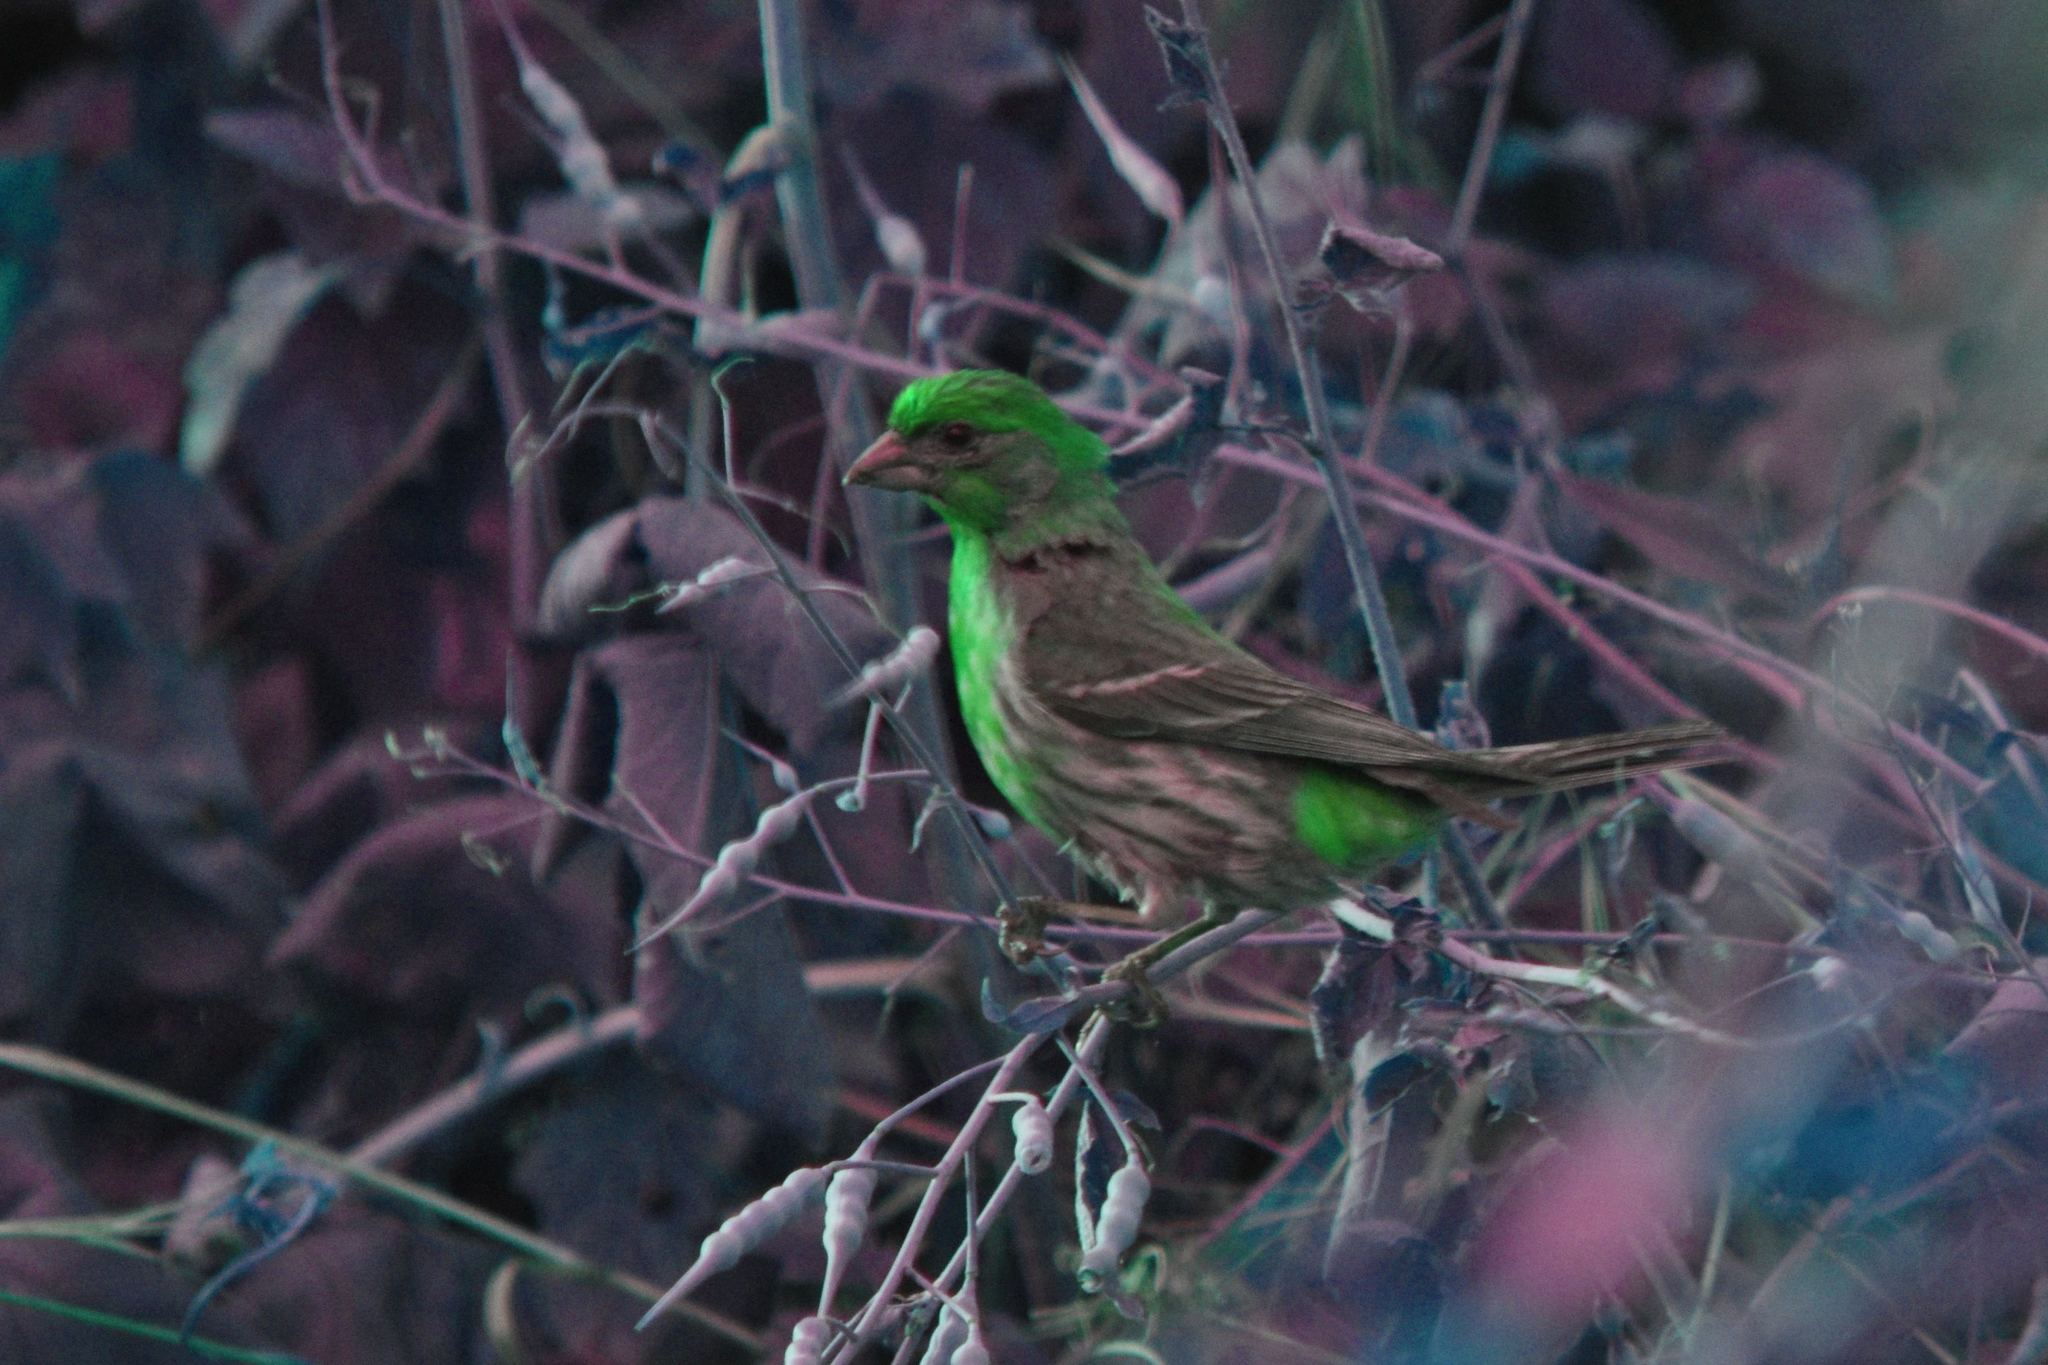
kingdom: Animalia
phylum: Chordata
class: Aves
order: Passeriformes
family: Fringillidae
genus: Haemorhous
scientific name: Haemorhous mexicanus
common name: House finch
